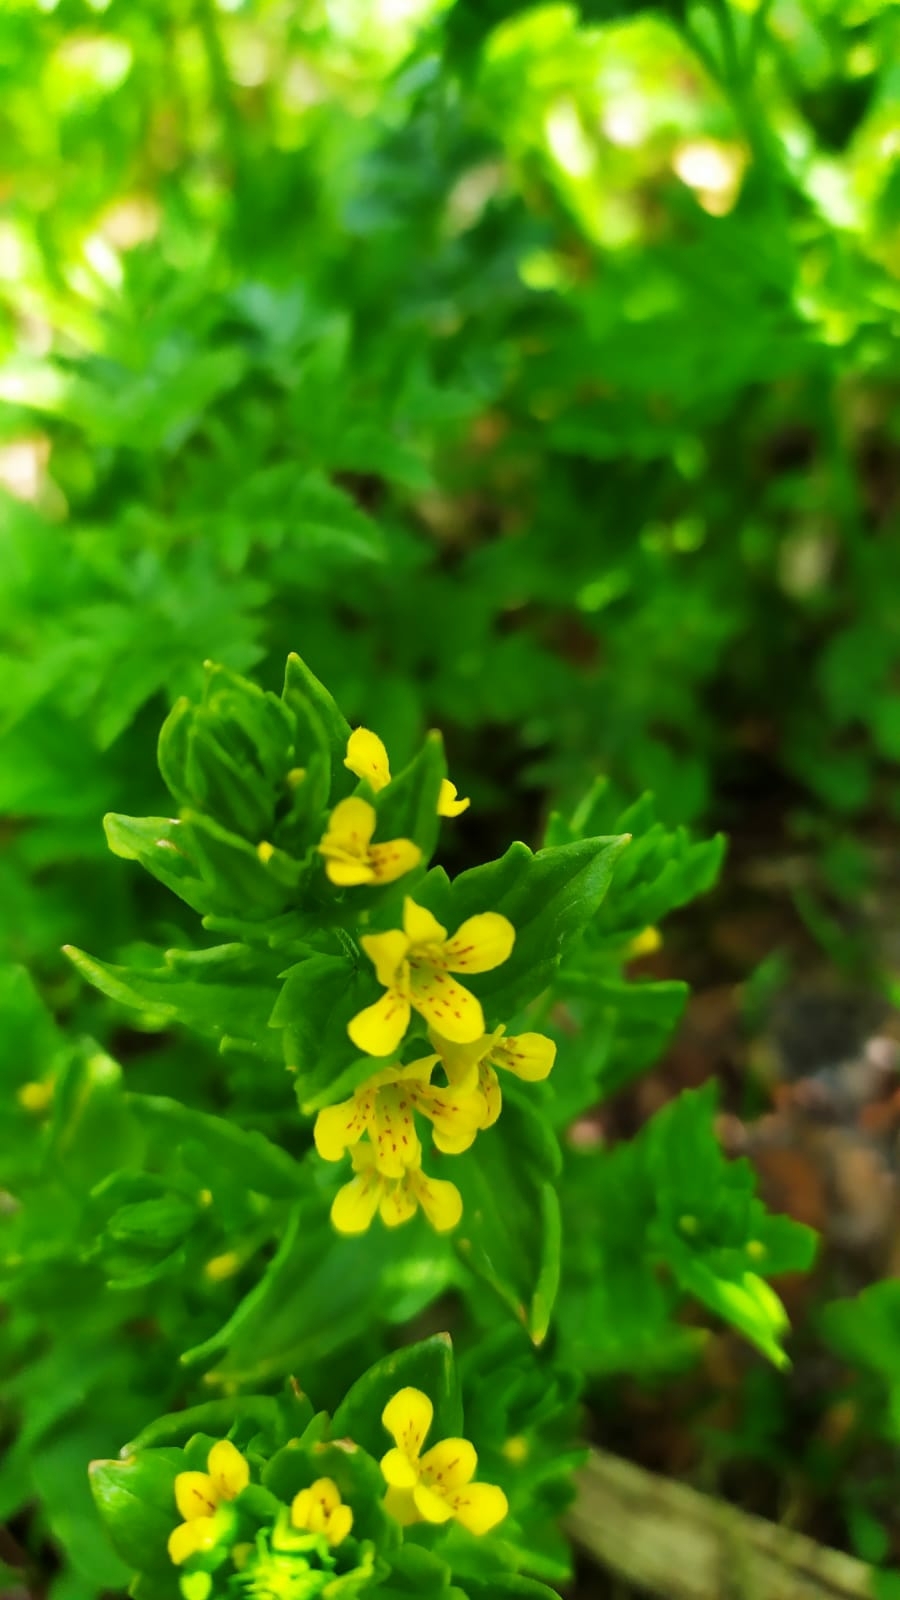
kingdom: Plantae
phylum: Tracheophyta
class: Magnoliopsida
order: Lamiales
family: Orobanchaceae
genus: Tozzia
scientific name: Tozzia alpina
